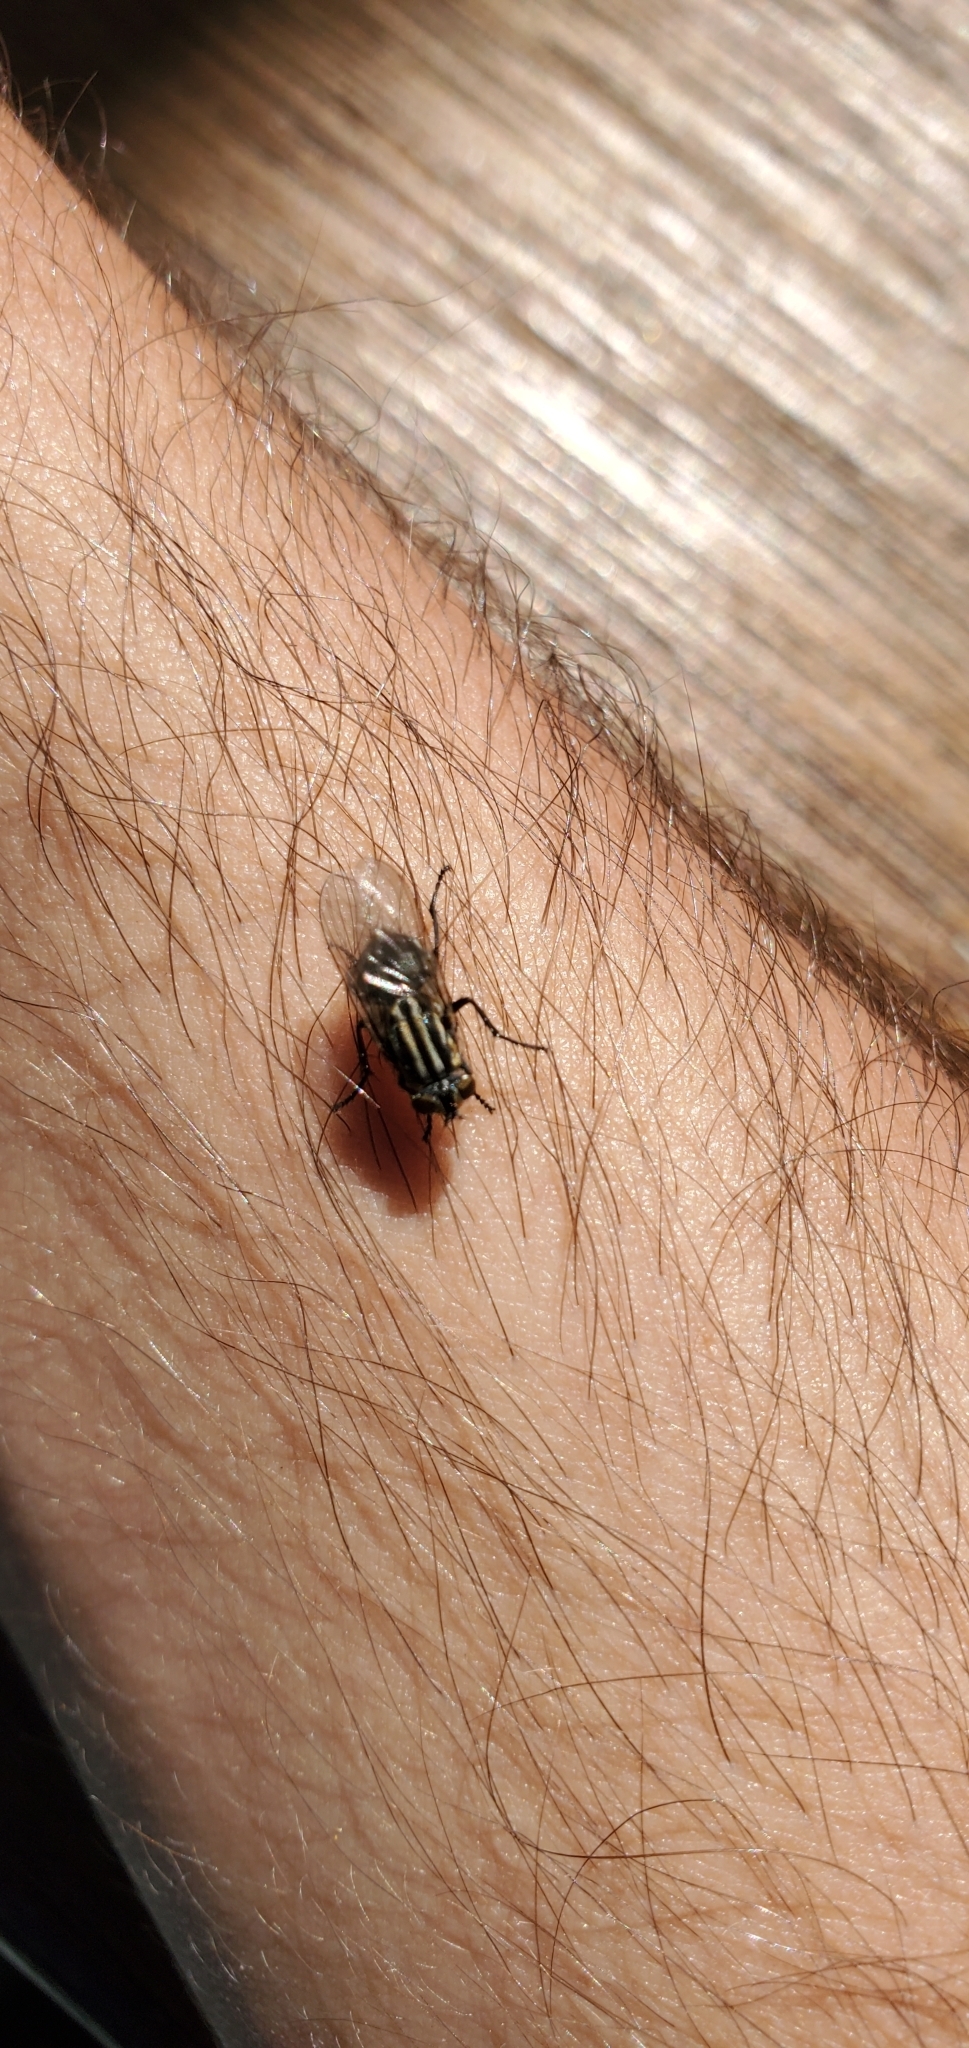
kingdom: Animalia
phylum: Arthropoda
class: Insecta
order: Diptera
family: Sarcophagidae
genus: Oxysarcodexia
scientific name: Oxysarcodexia varia
